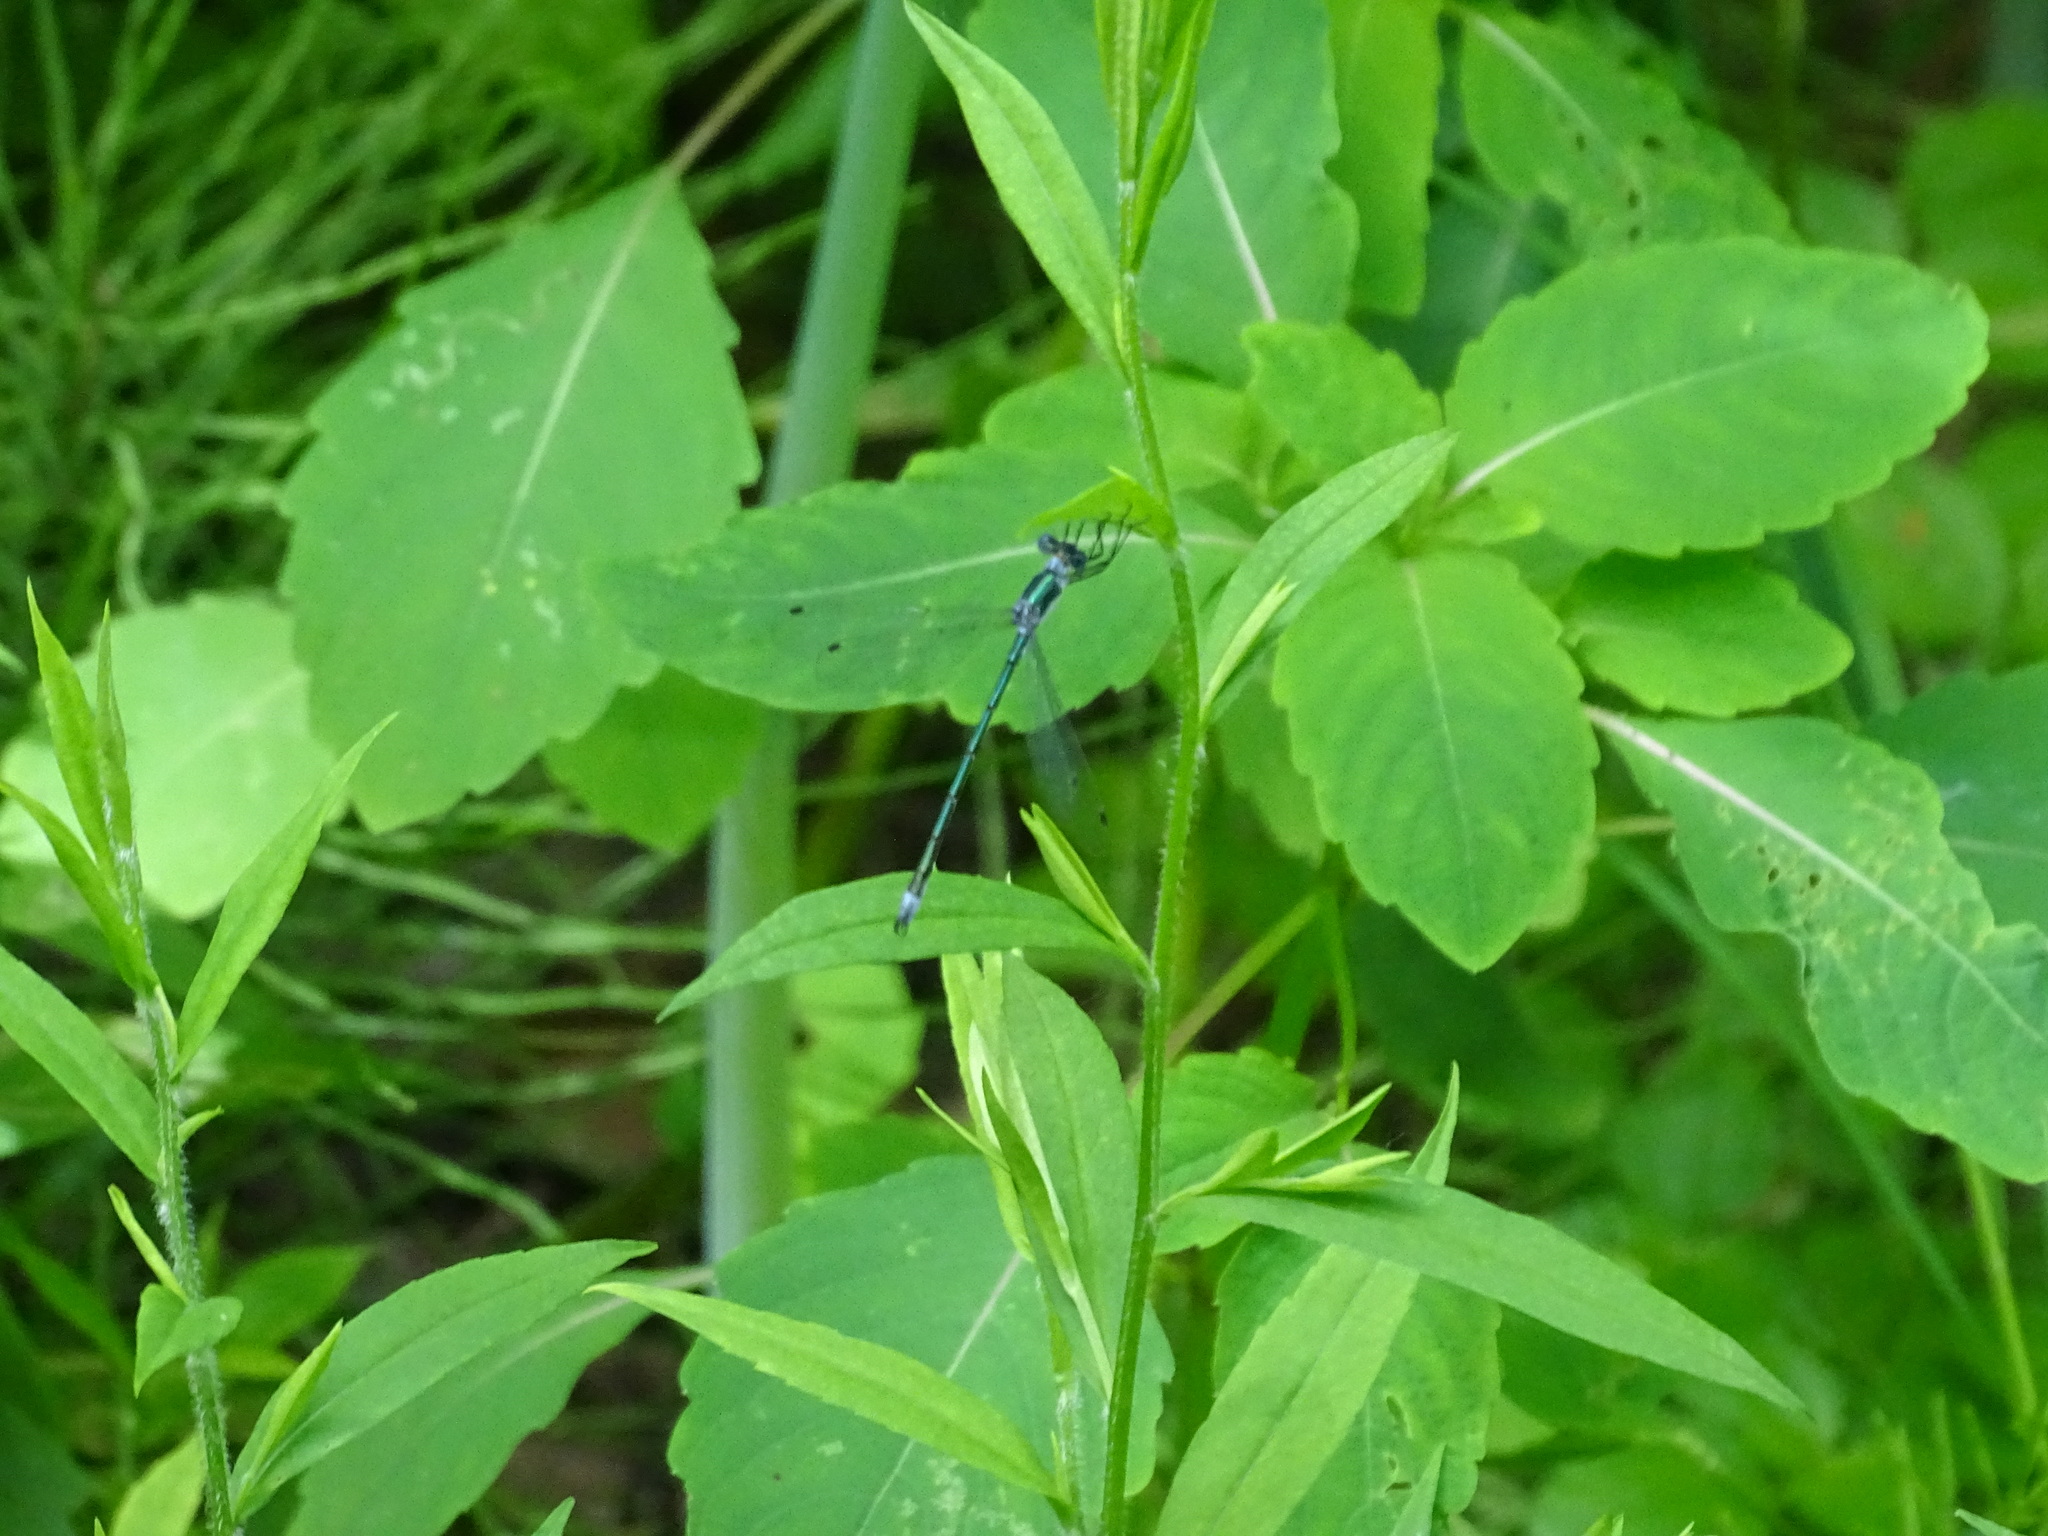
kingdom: Animalia
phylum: Arthropoda
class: Insecta
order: Odonata
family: Lestidae
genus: Lestes
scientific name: Lestes dryas
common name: Scarce emerald damselfly
